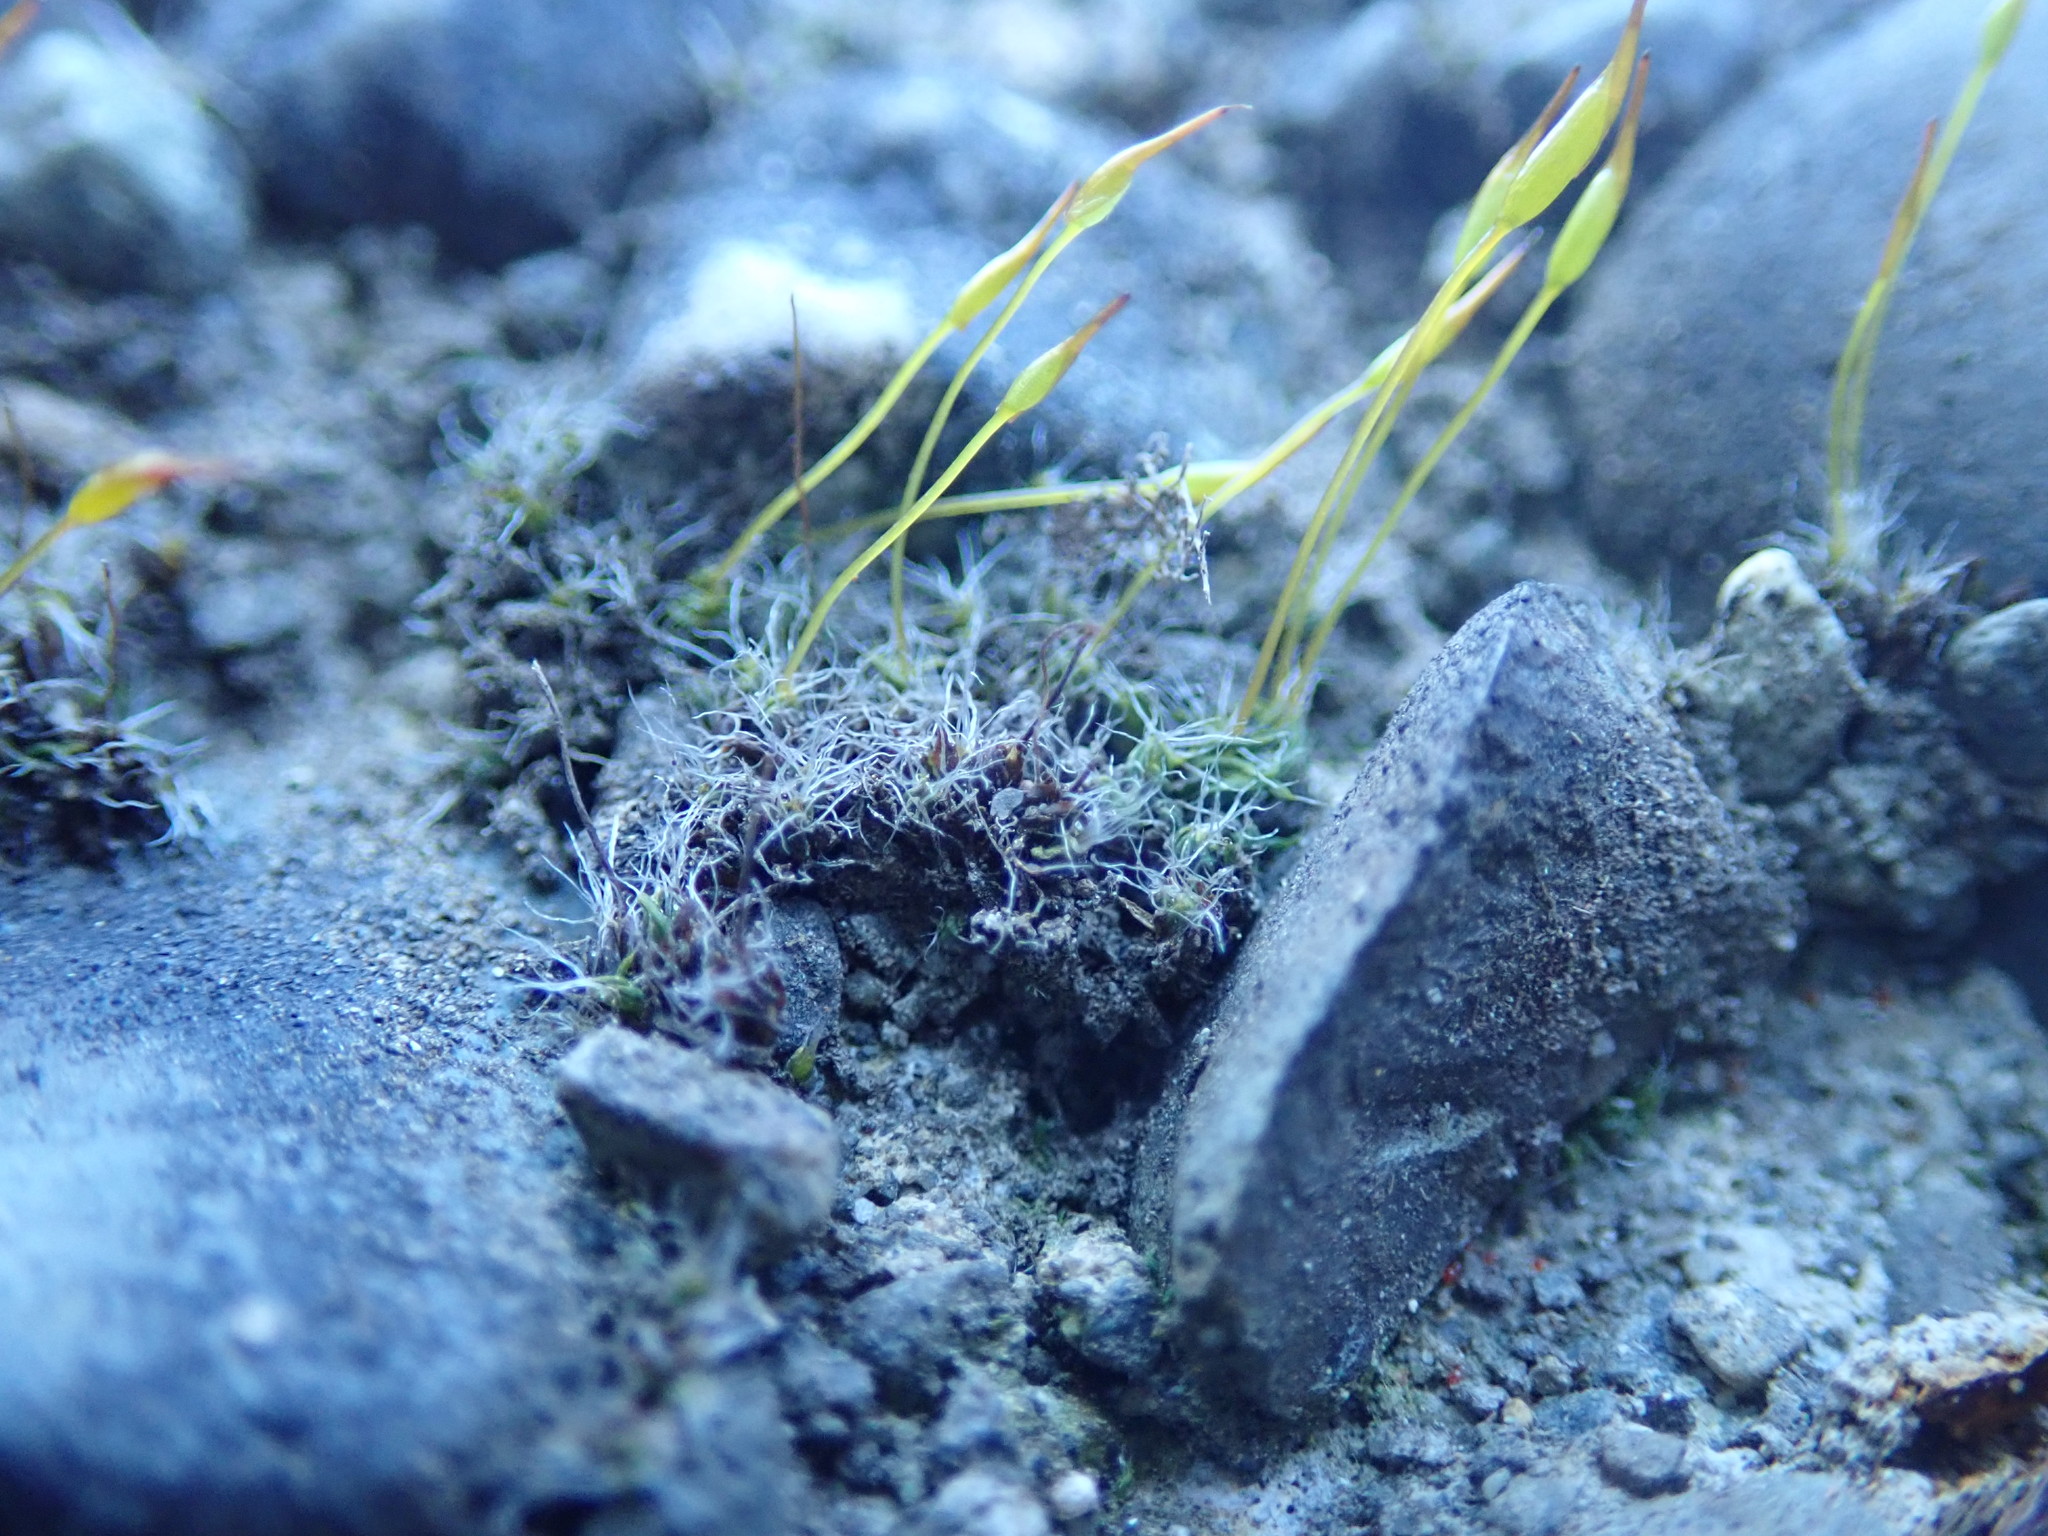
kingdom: Plantae
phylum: Bryophyta
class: Bryopsida
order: Pottiales
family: Pottiaceae
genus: Tortula
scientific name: Tortula muralis
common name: Wall screw-moss
